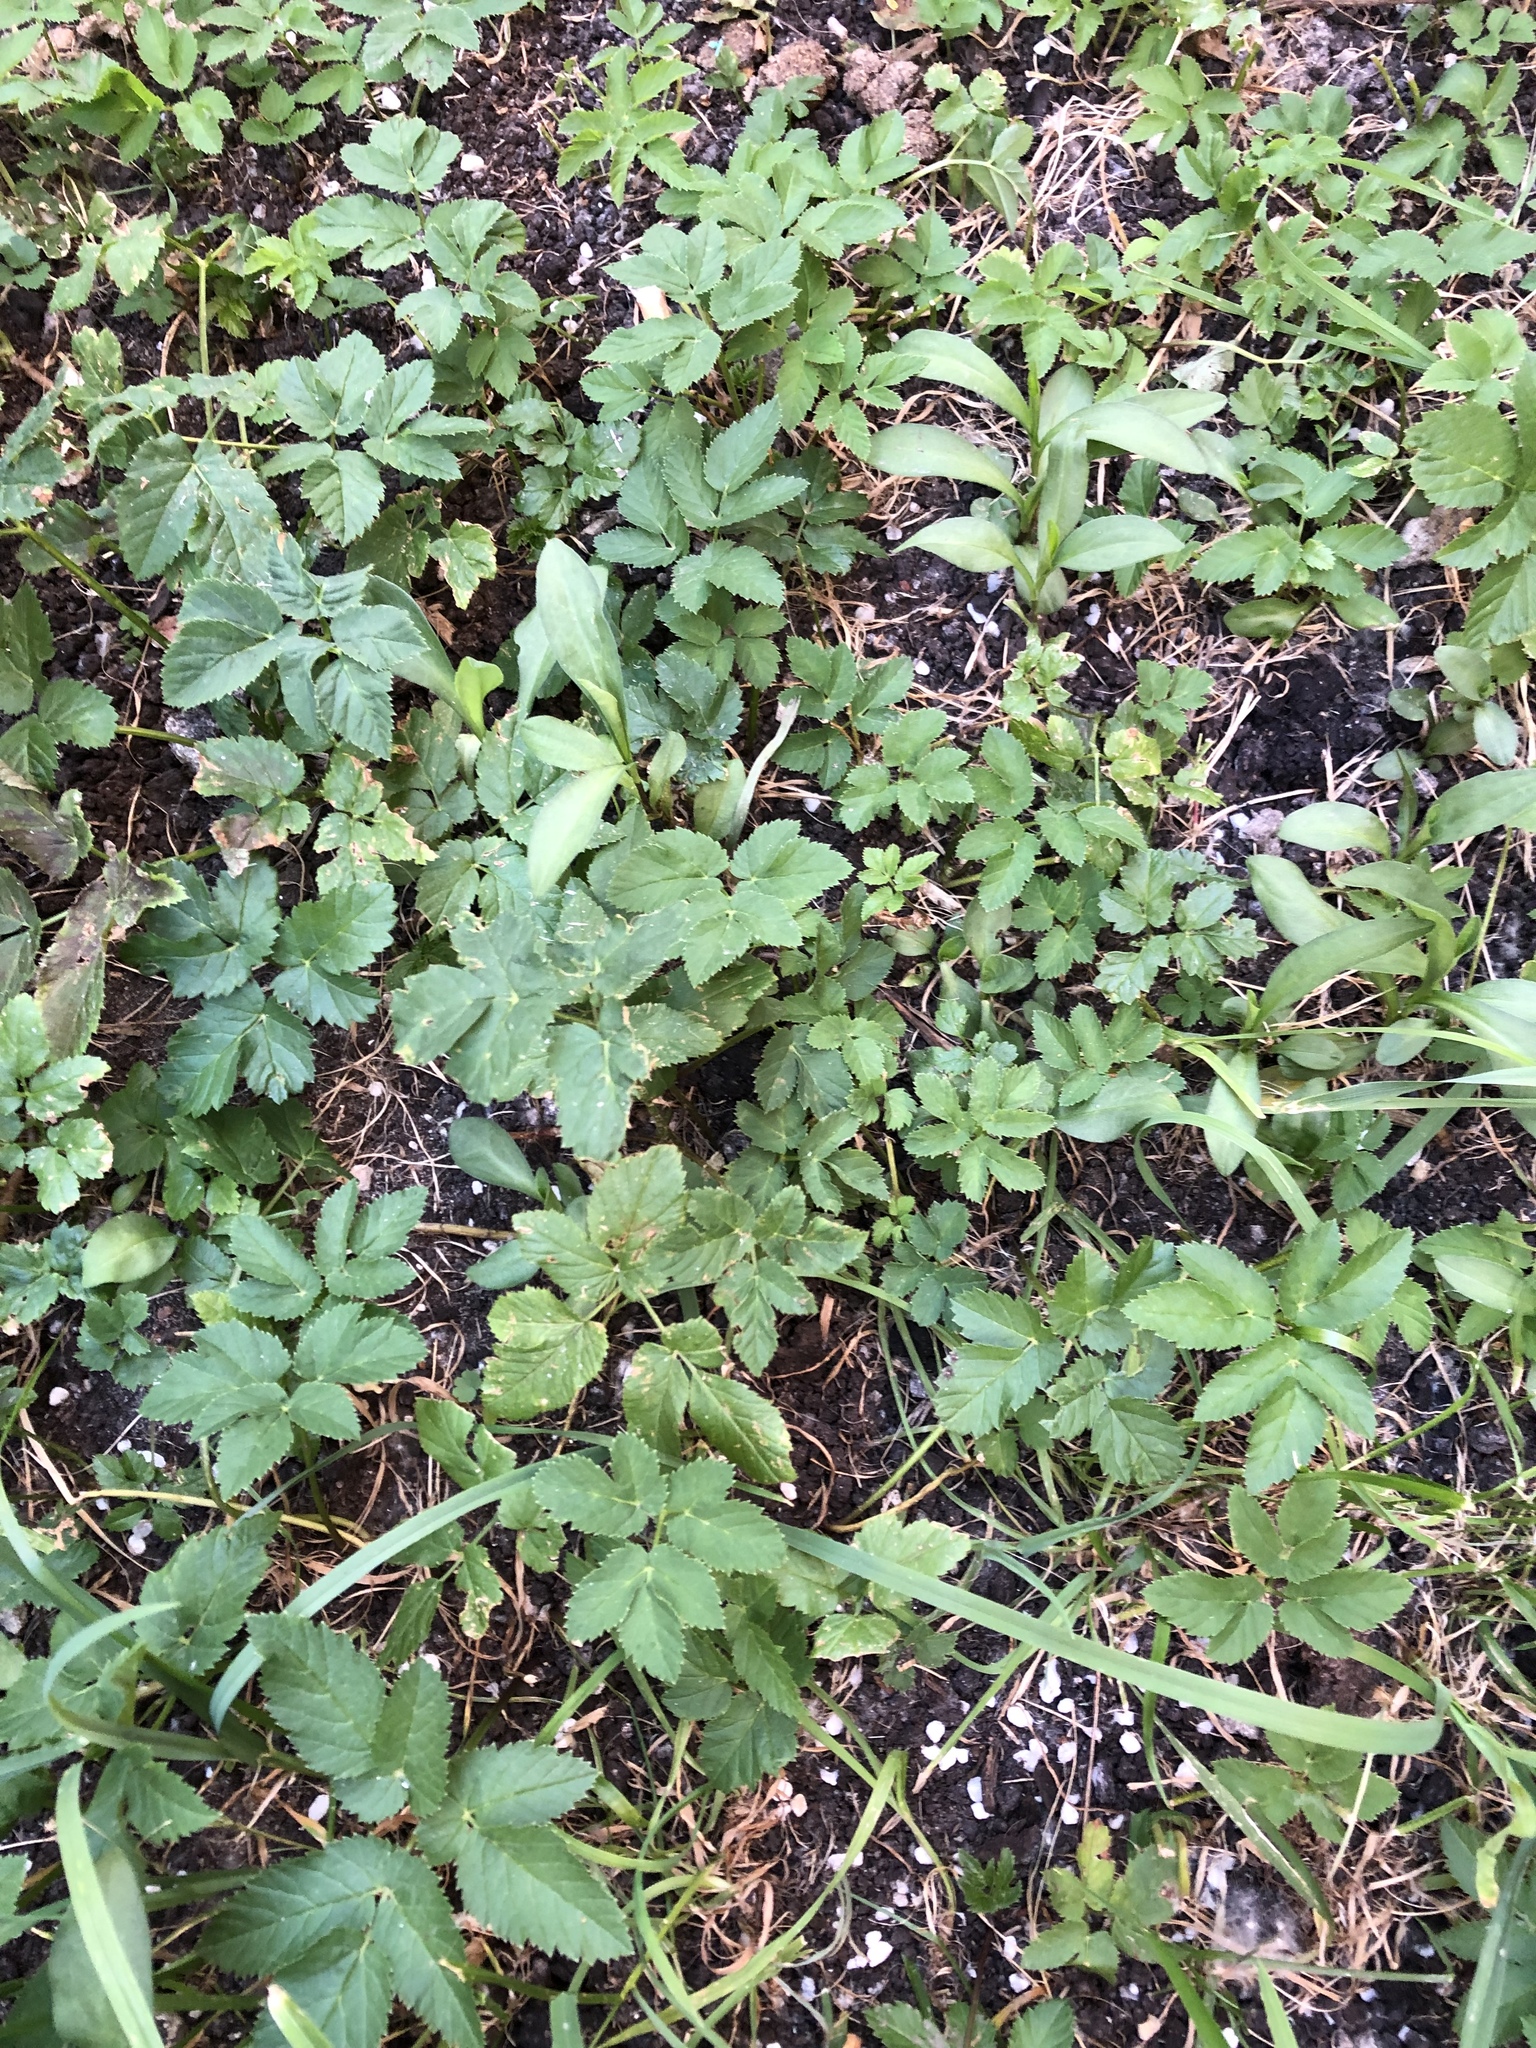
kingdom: Plantae
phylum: Tracheophyta
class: Magnoliopsida
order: Apiales
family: Apiaceae
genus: Aegopodium
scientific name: Aegopodium podagraria
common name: Ground-elder
